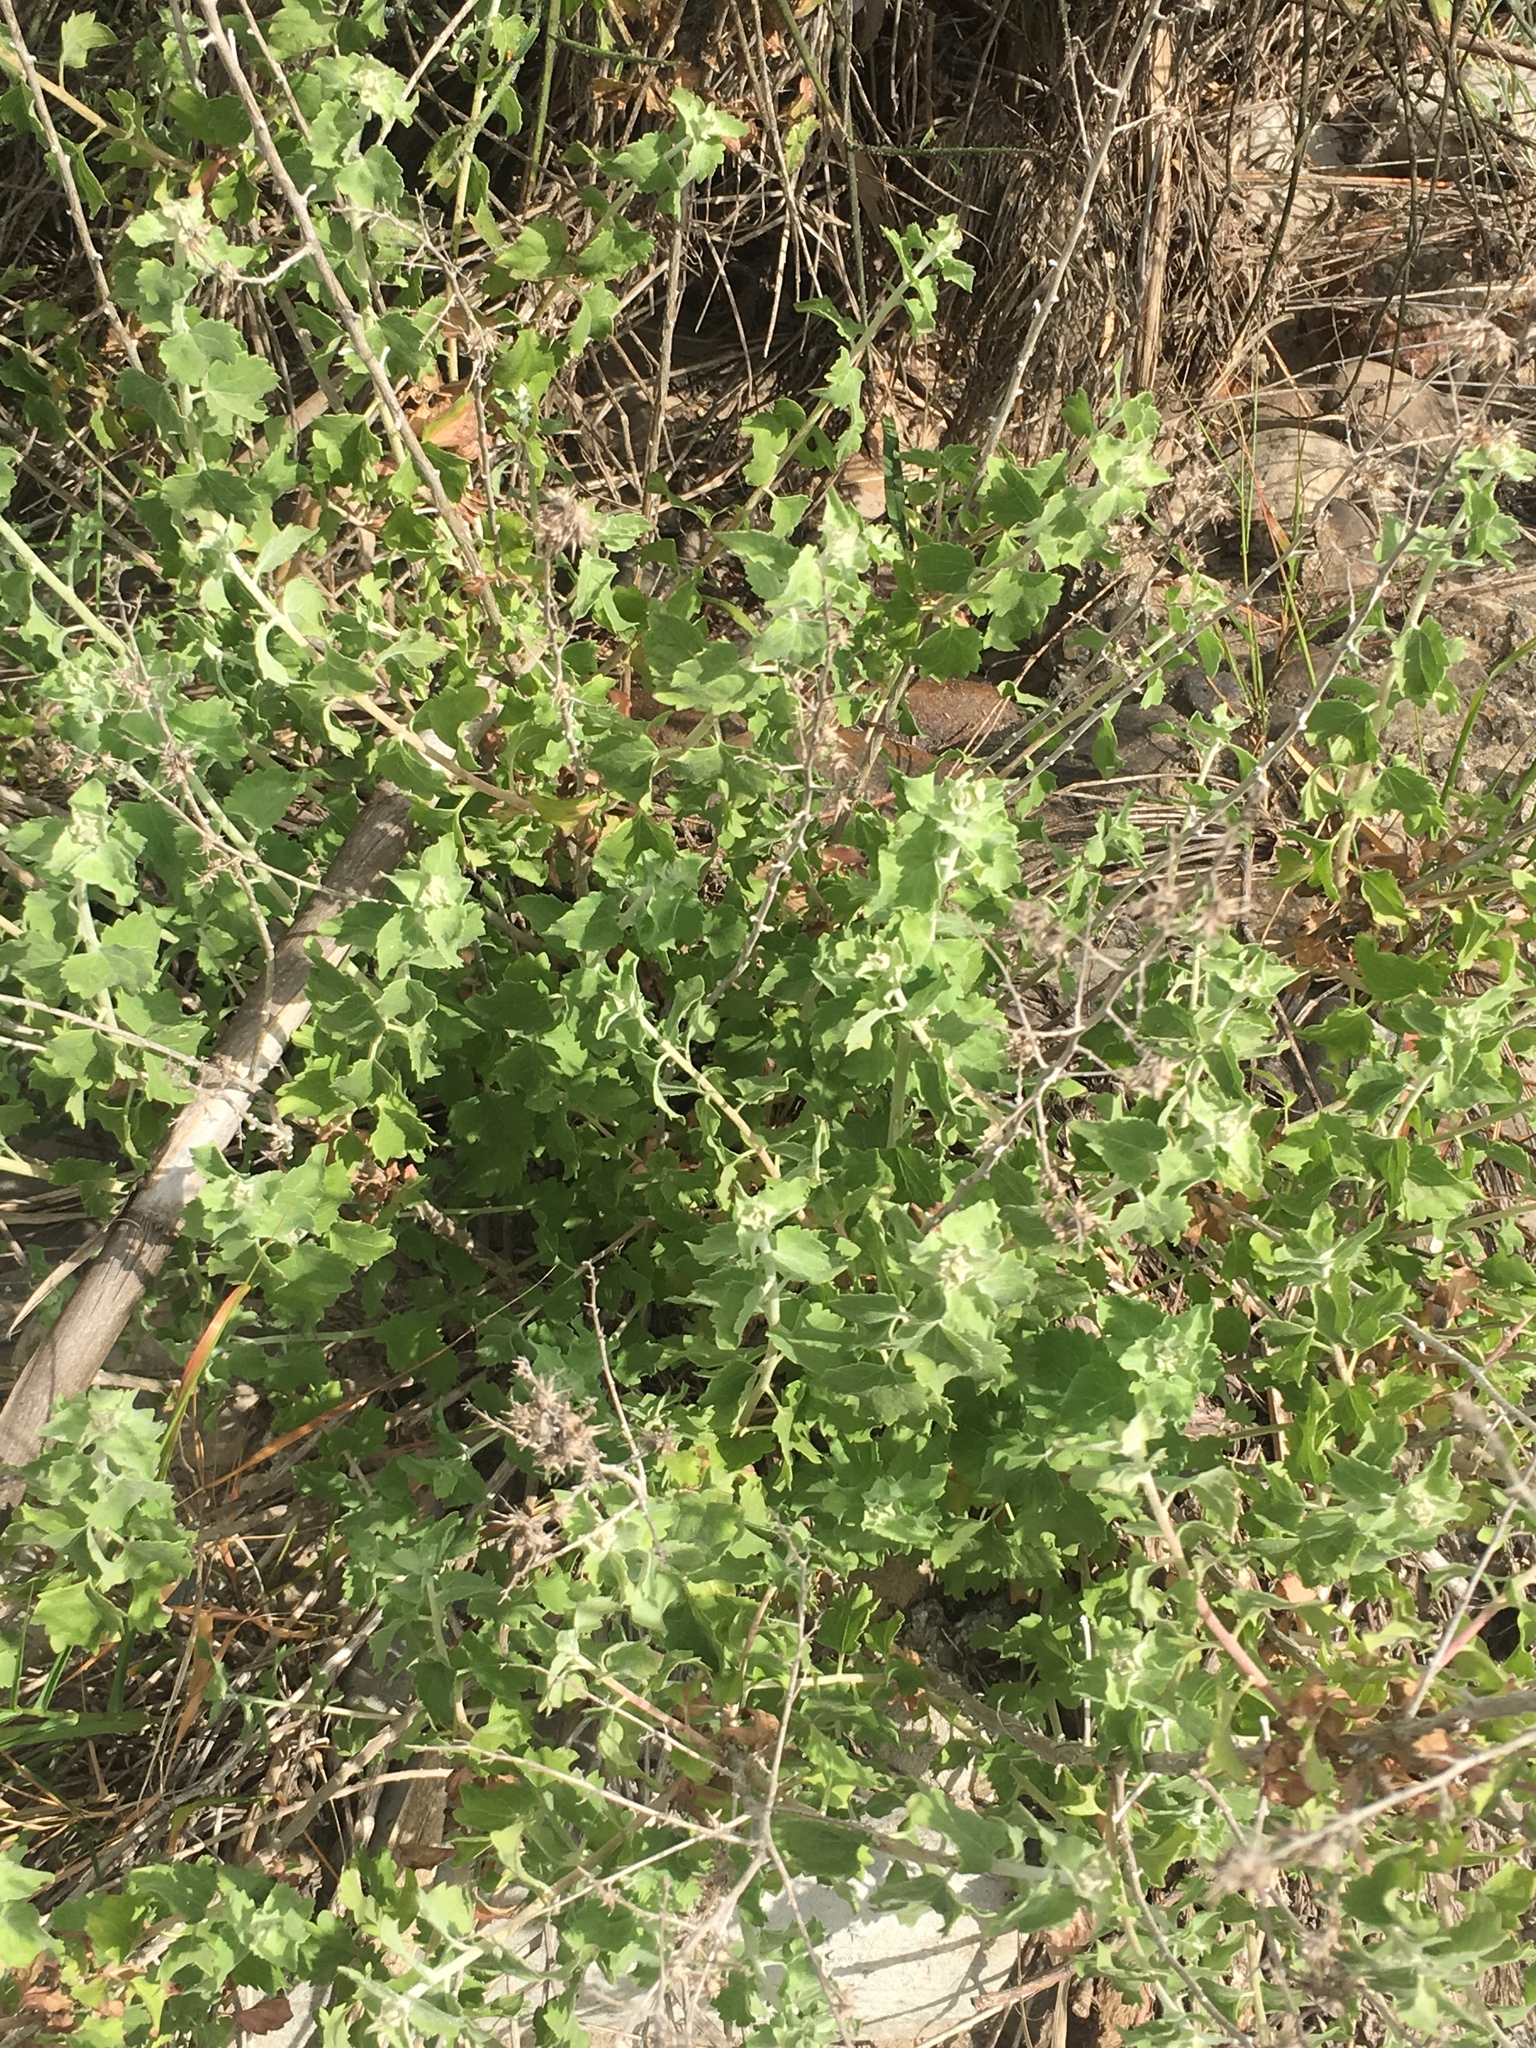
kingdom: Plantae
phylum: Tracheophyta
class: Magnoliopsida
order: Asterales
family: Asteraceae
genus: Brickellia
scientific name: Brickellia californica
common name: California brickellbush
